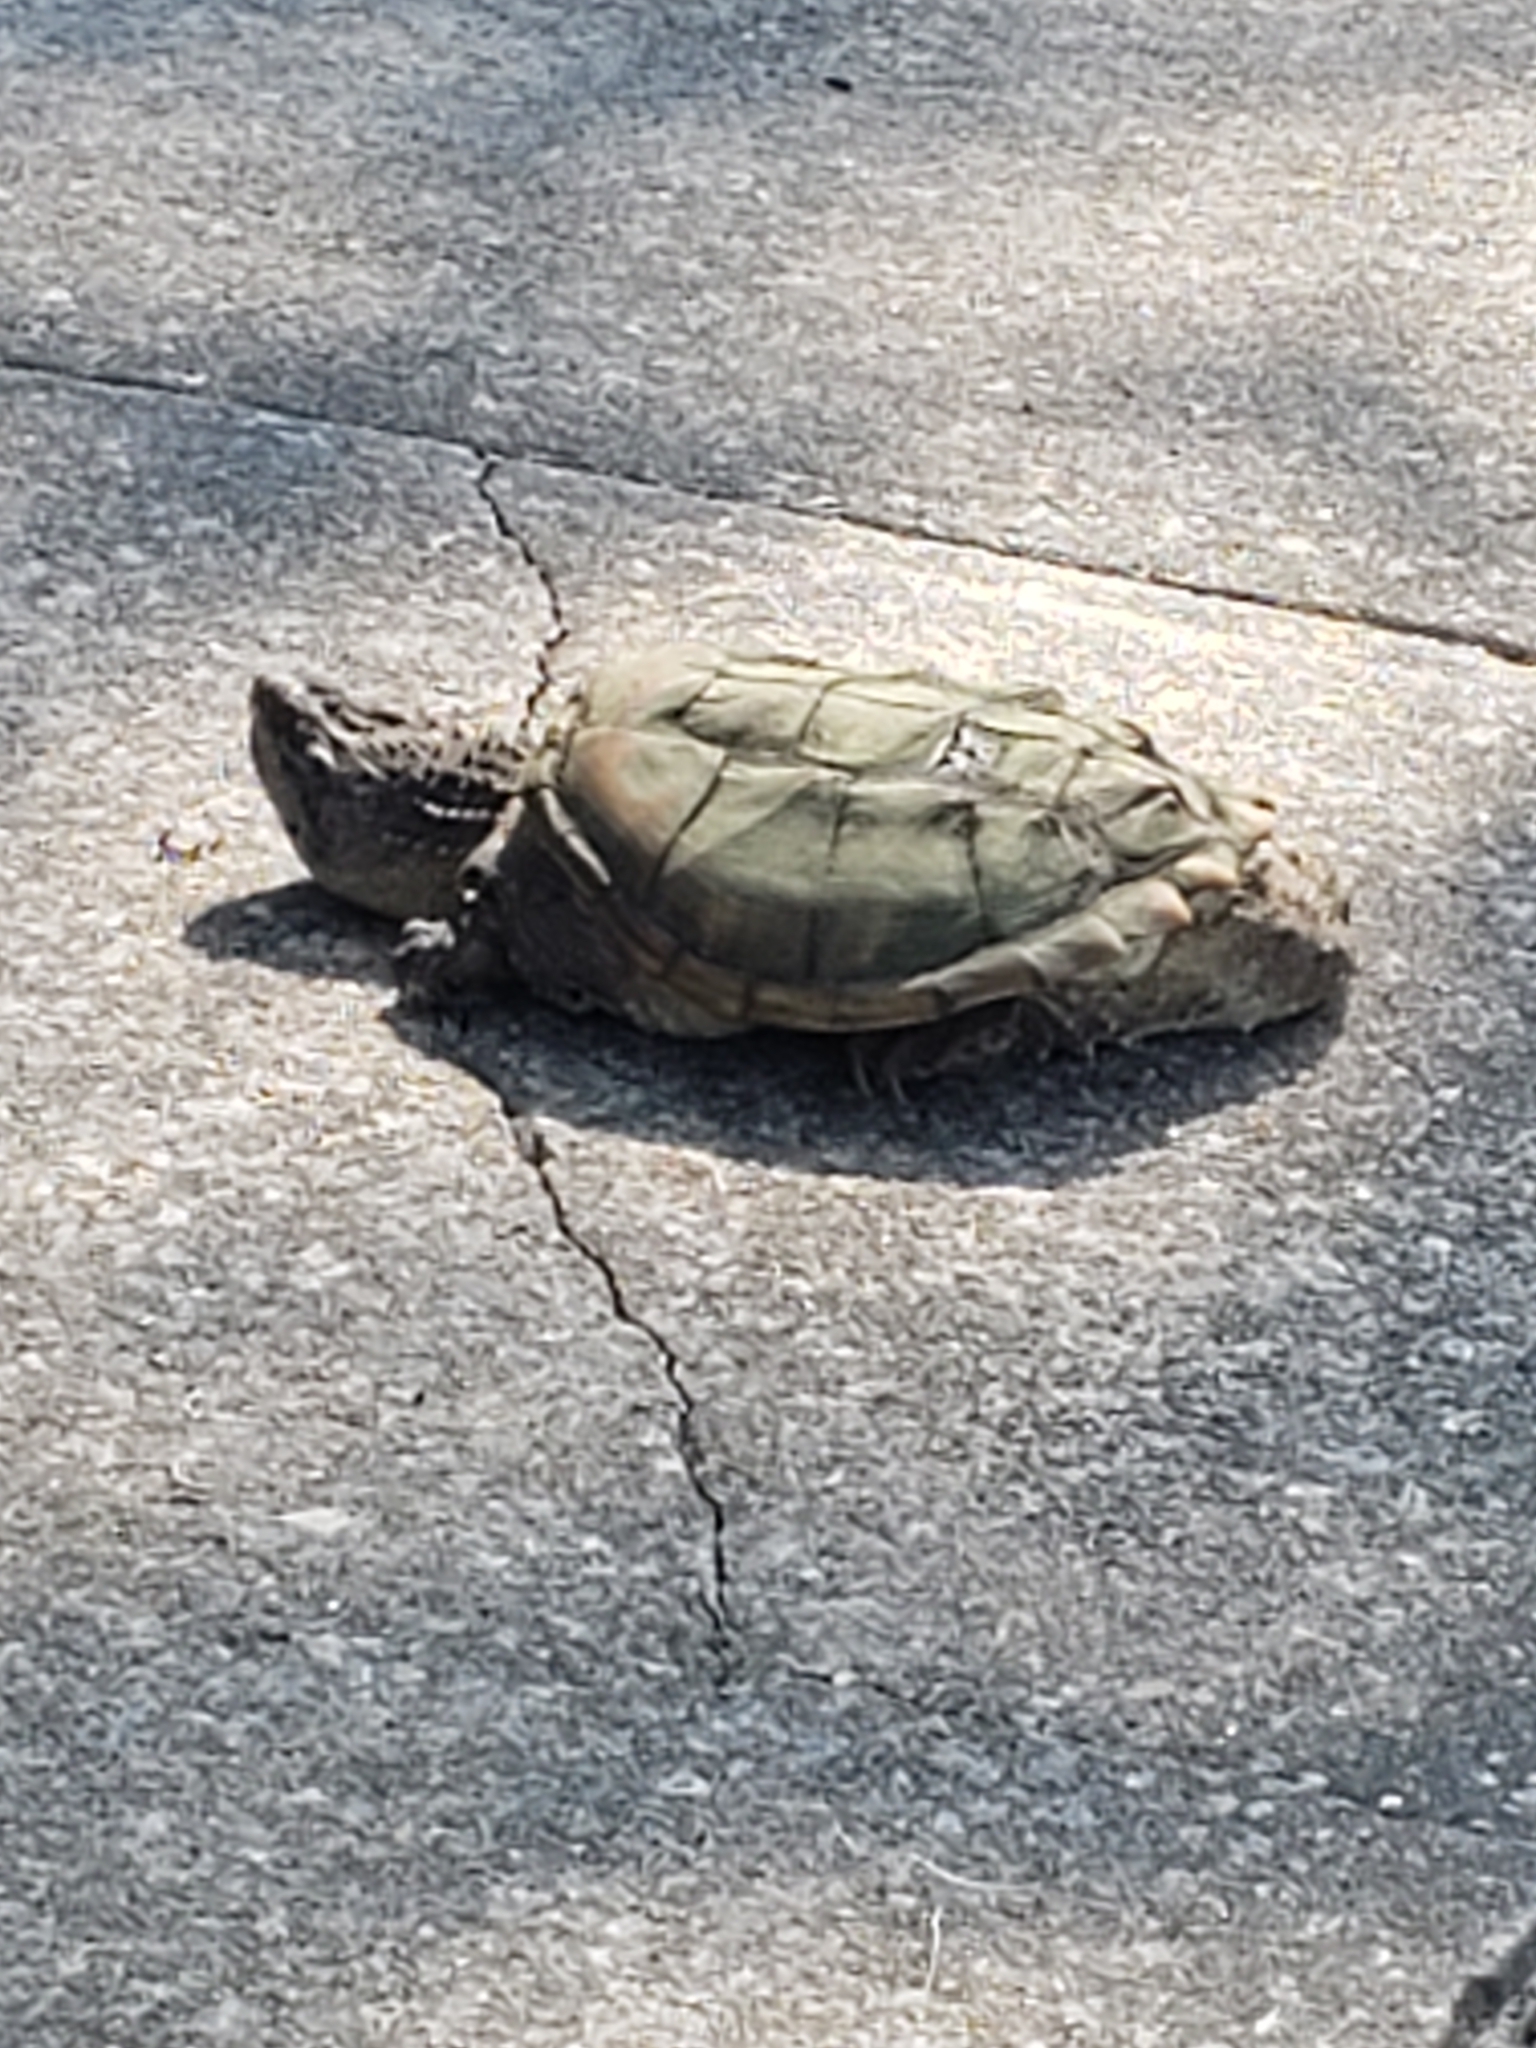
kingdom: Animalia
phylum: Chordata
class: Testudines
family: Chelydridae
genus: Chelydra
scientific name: Chelydra serpentina
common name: Common snapping turtle
